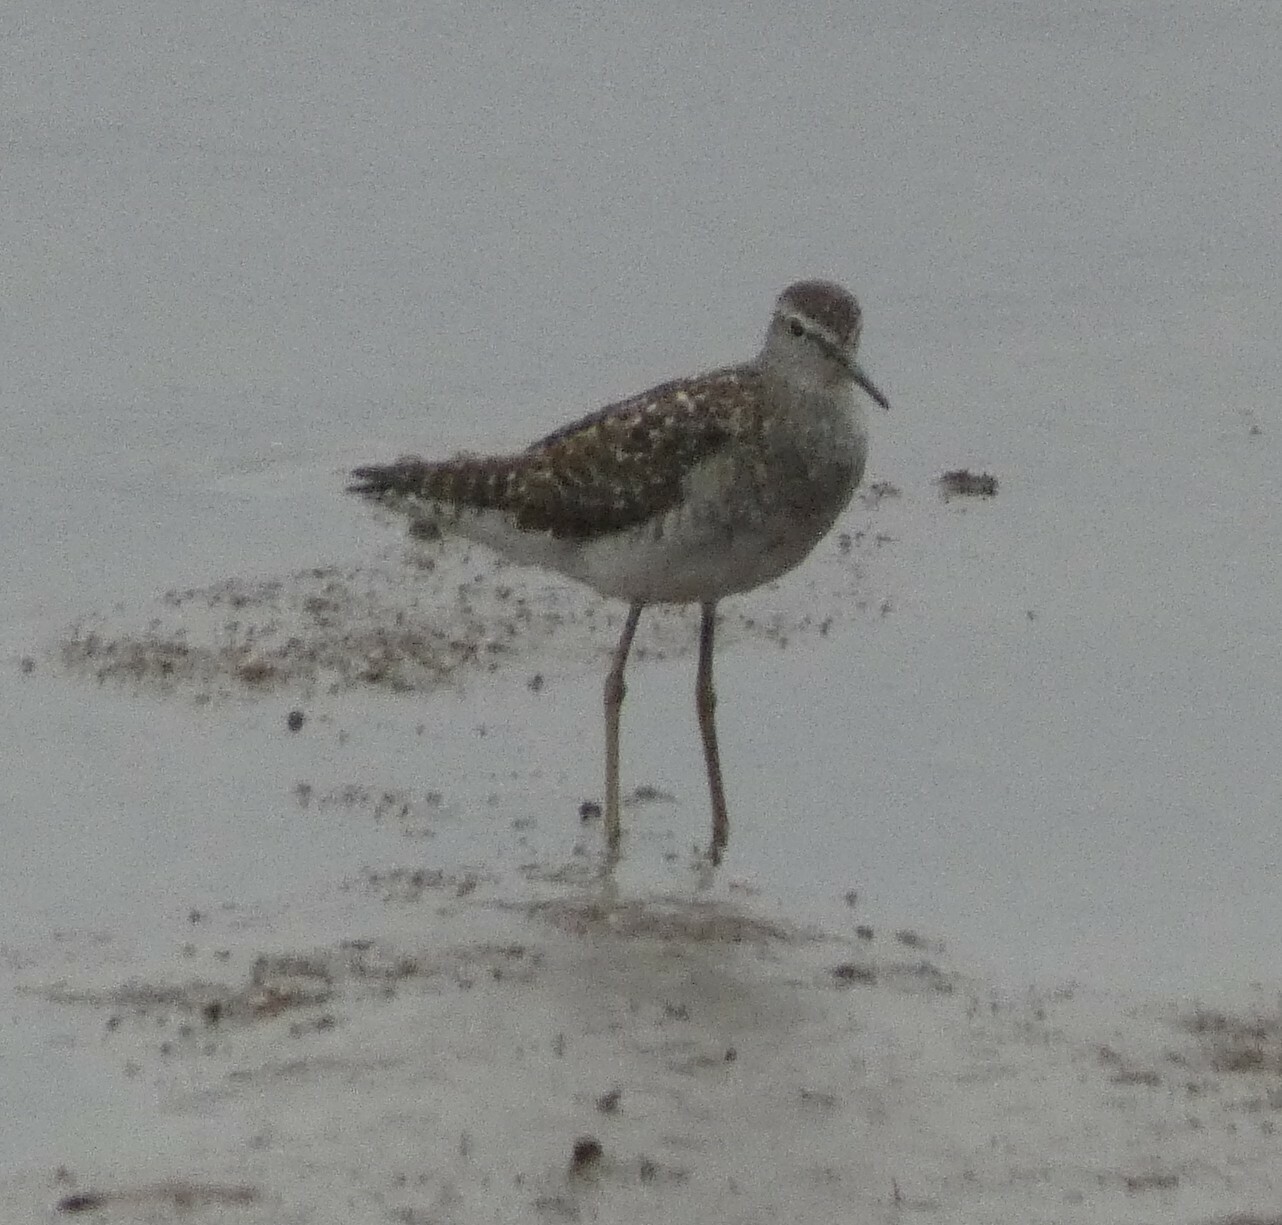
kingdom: Animalia
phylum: Chordata
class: Aves
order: Charadriiformes
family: Scolopacidae
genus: Tringa
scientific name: Tringa glareola
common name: Wood sandpiper
